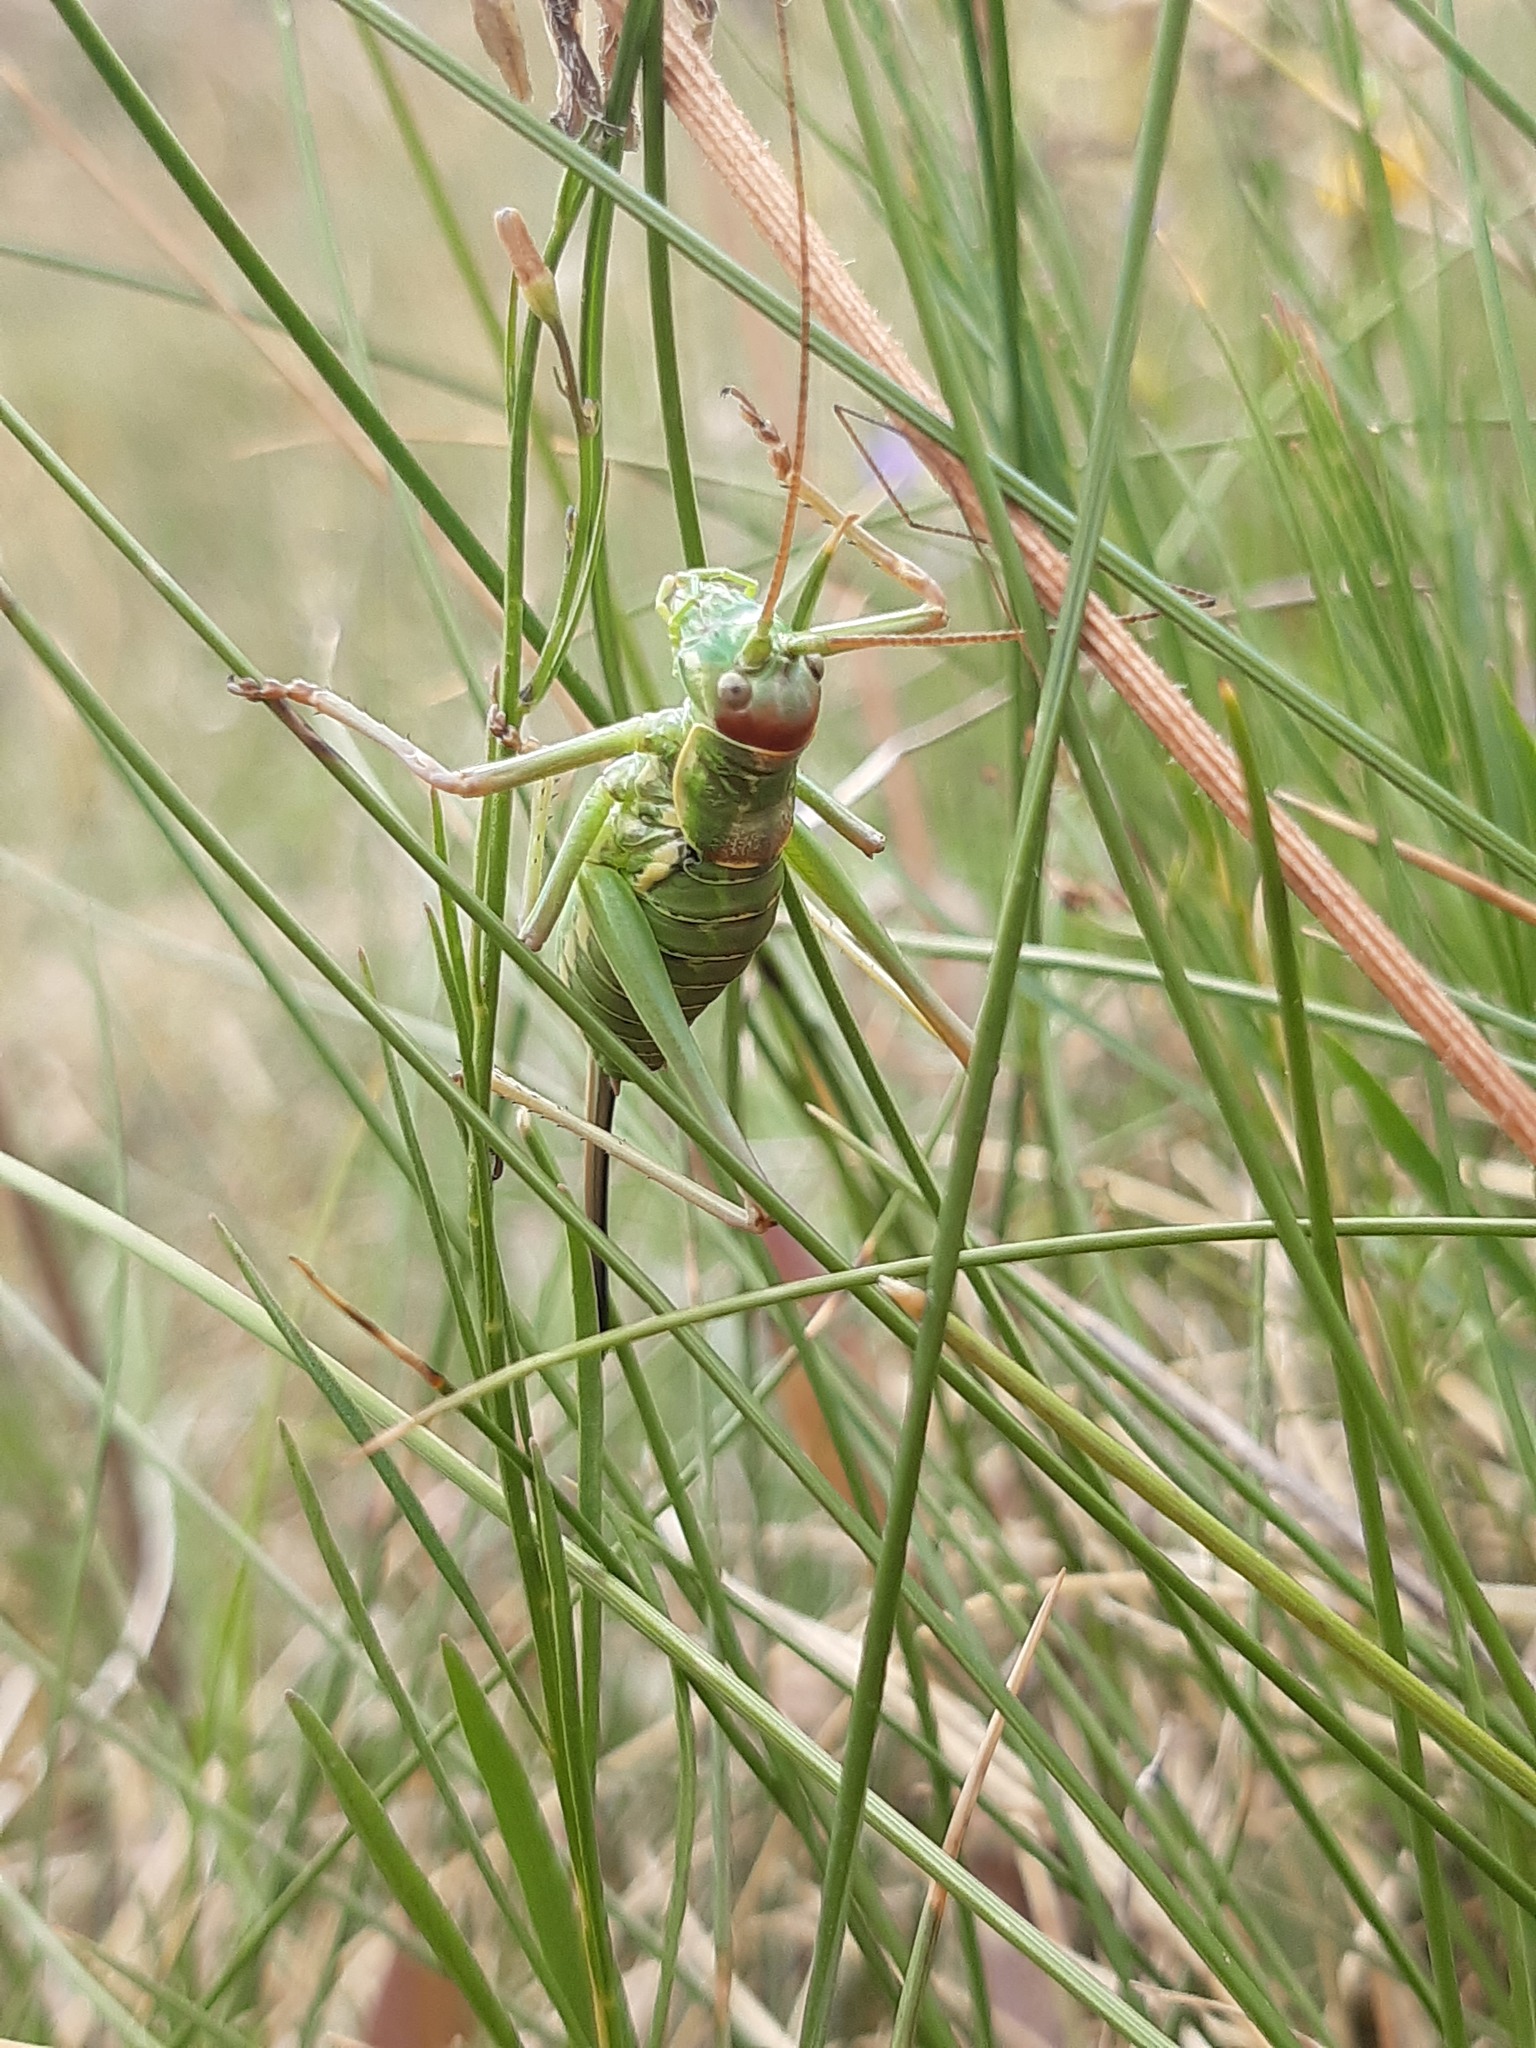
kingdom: Animalia
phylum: Arthropoda
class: Insecta
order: Orthoptera
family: Tettigoniidae
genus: Dinarippiger
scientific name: Dinarippiger discoidalis
